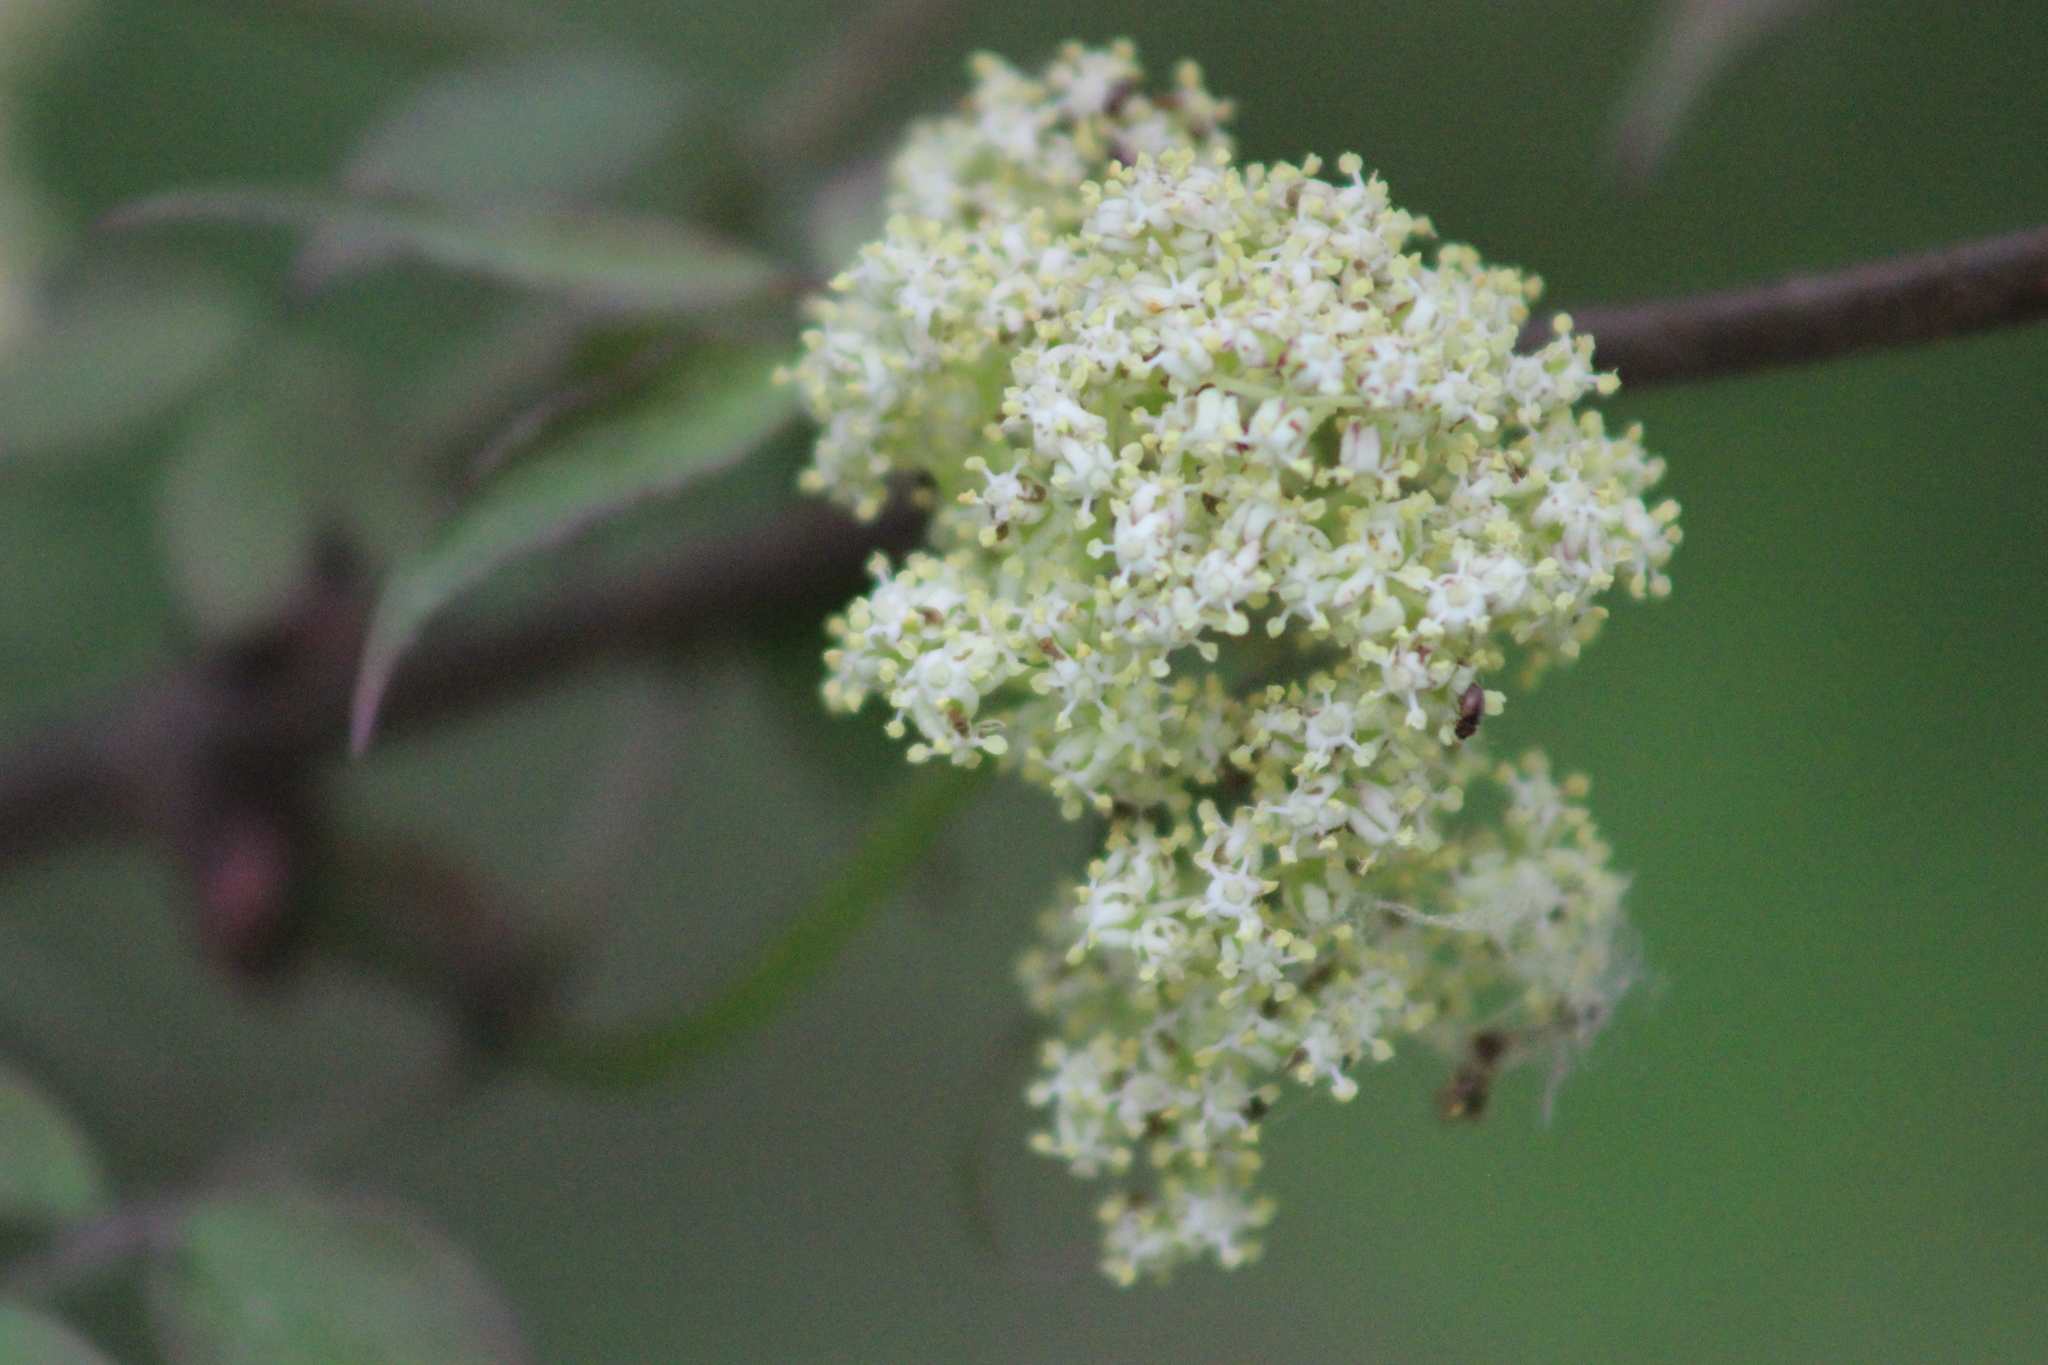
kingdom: Plantae
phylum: Tracheophyta
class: Magnoliopsida
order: Dipsacales
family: Viburnaceae
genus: Sambucus
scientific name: Sambucus sibirica
